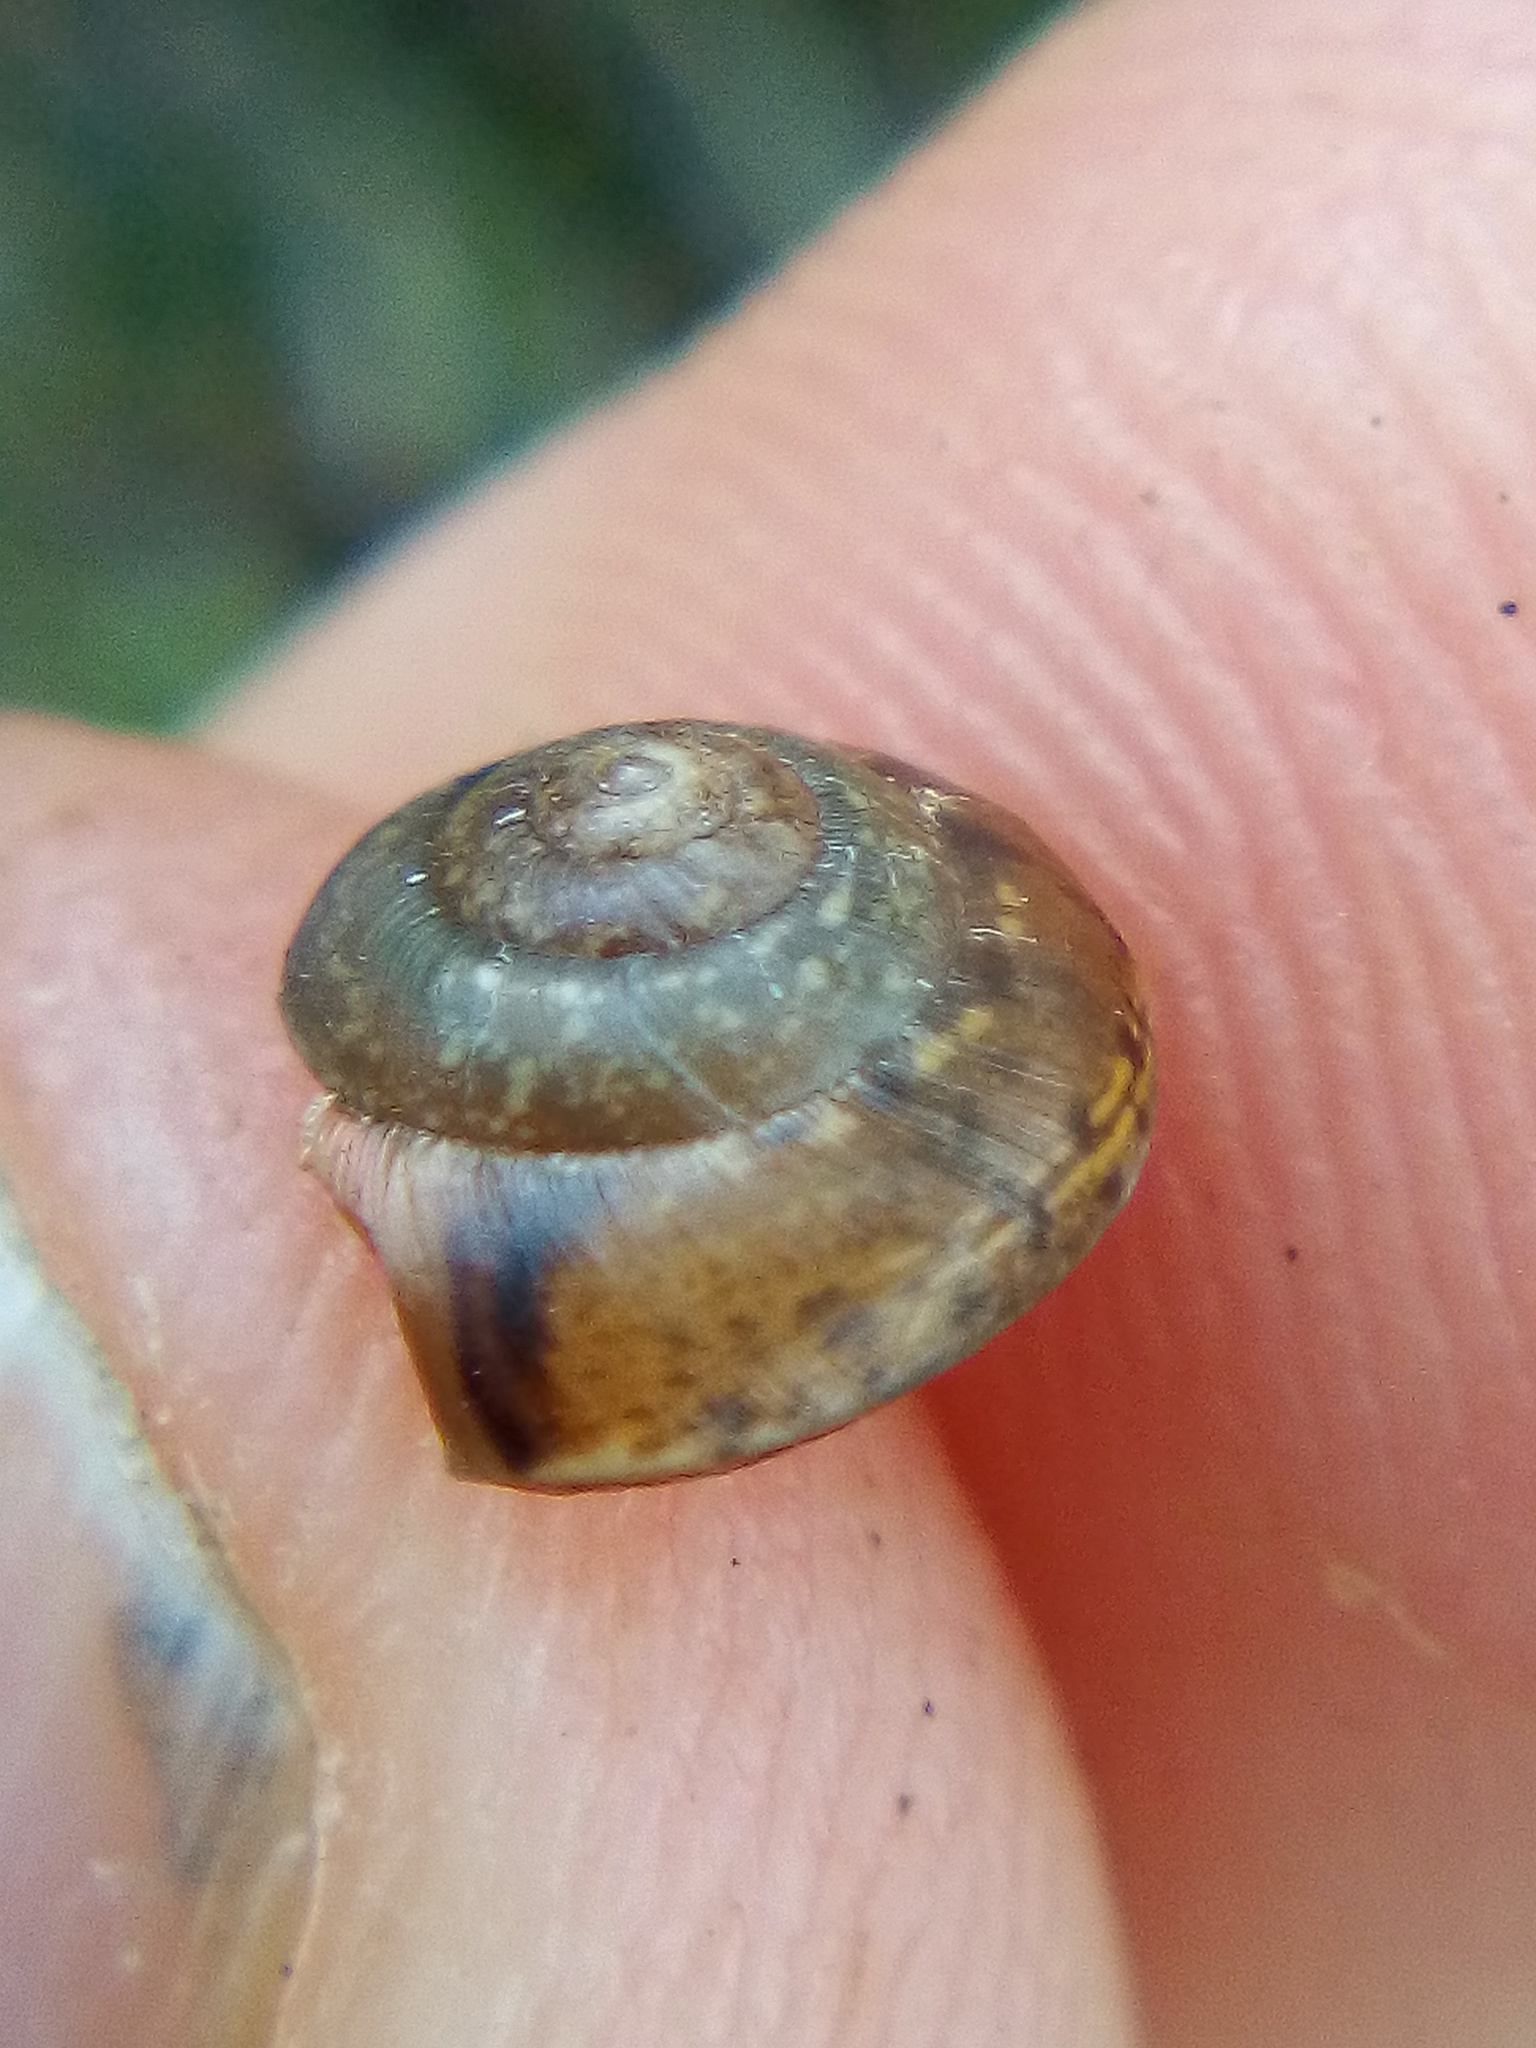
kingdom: Animalia
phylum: Mollusca
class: Gastropoda
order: Stylommatophora
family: Hygromiidae
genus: Hygromia
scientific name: Hygromia cinctella
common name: Girdled snail
